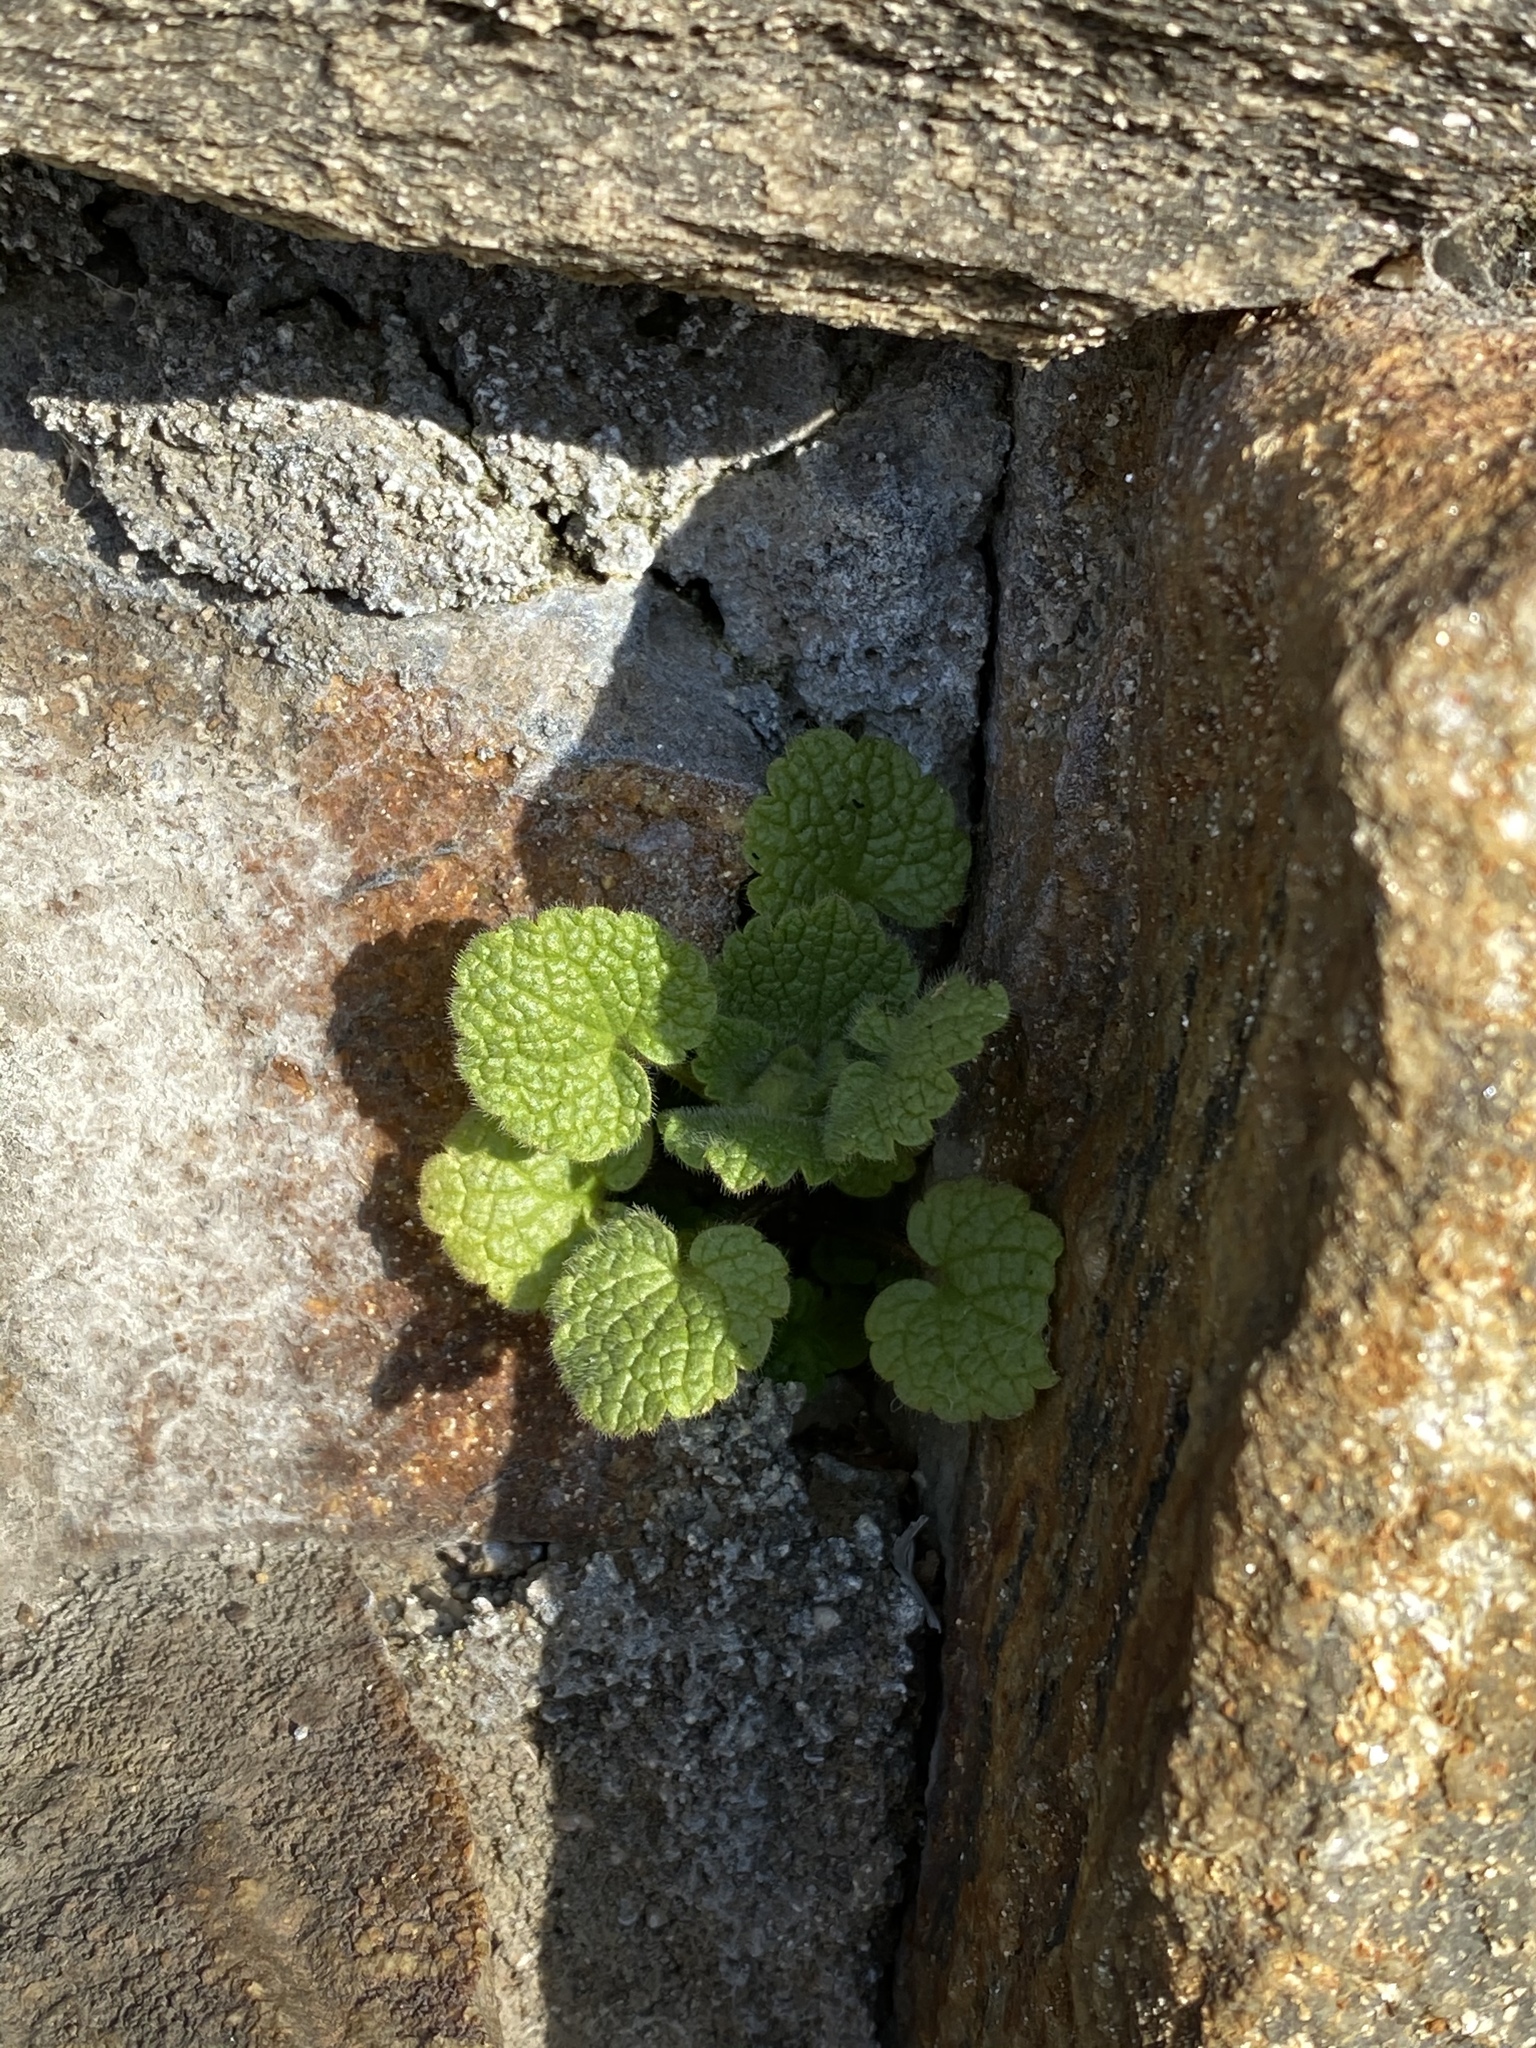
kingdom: Plantae
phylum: Tracheophyta
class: Magnoliopsida
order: Lamiales
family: Lamiaceae
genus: Lamium
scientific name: Lamium purpureum
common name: Red dead-nettle
